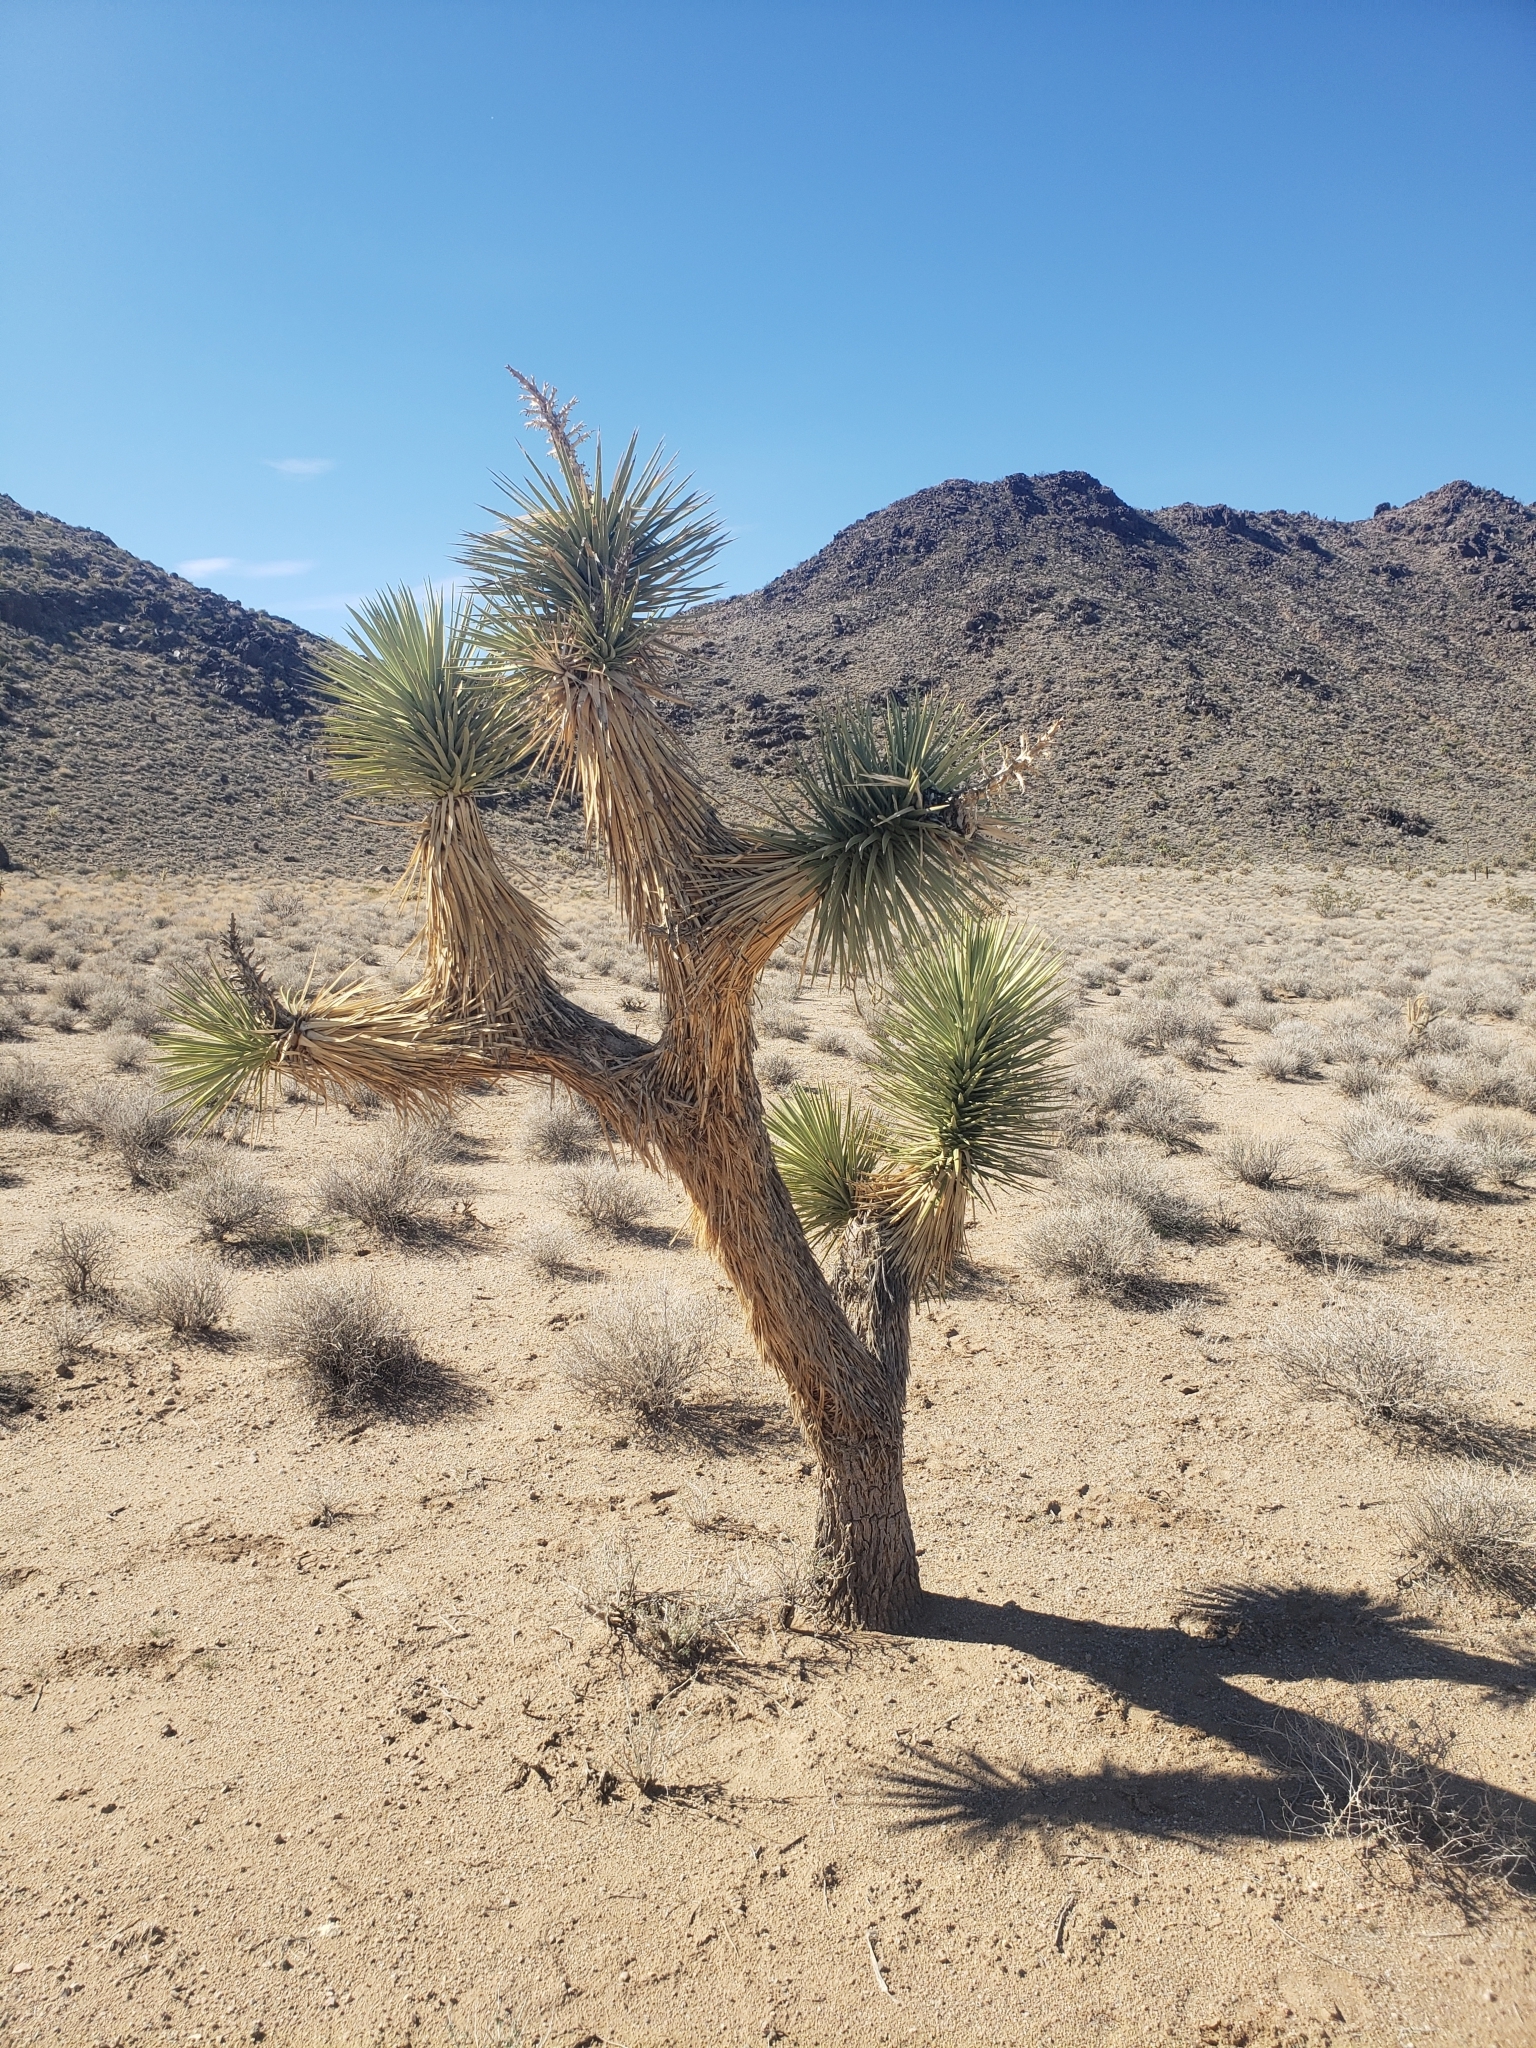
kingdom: Plantae
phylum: Tracheophyta
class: Liliopsida
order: Asparagales
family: Asparagaceae
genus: Yucca
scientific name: Yucca brevifolia
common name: Joshua tree
